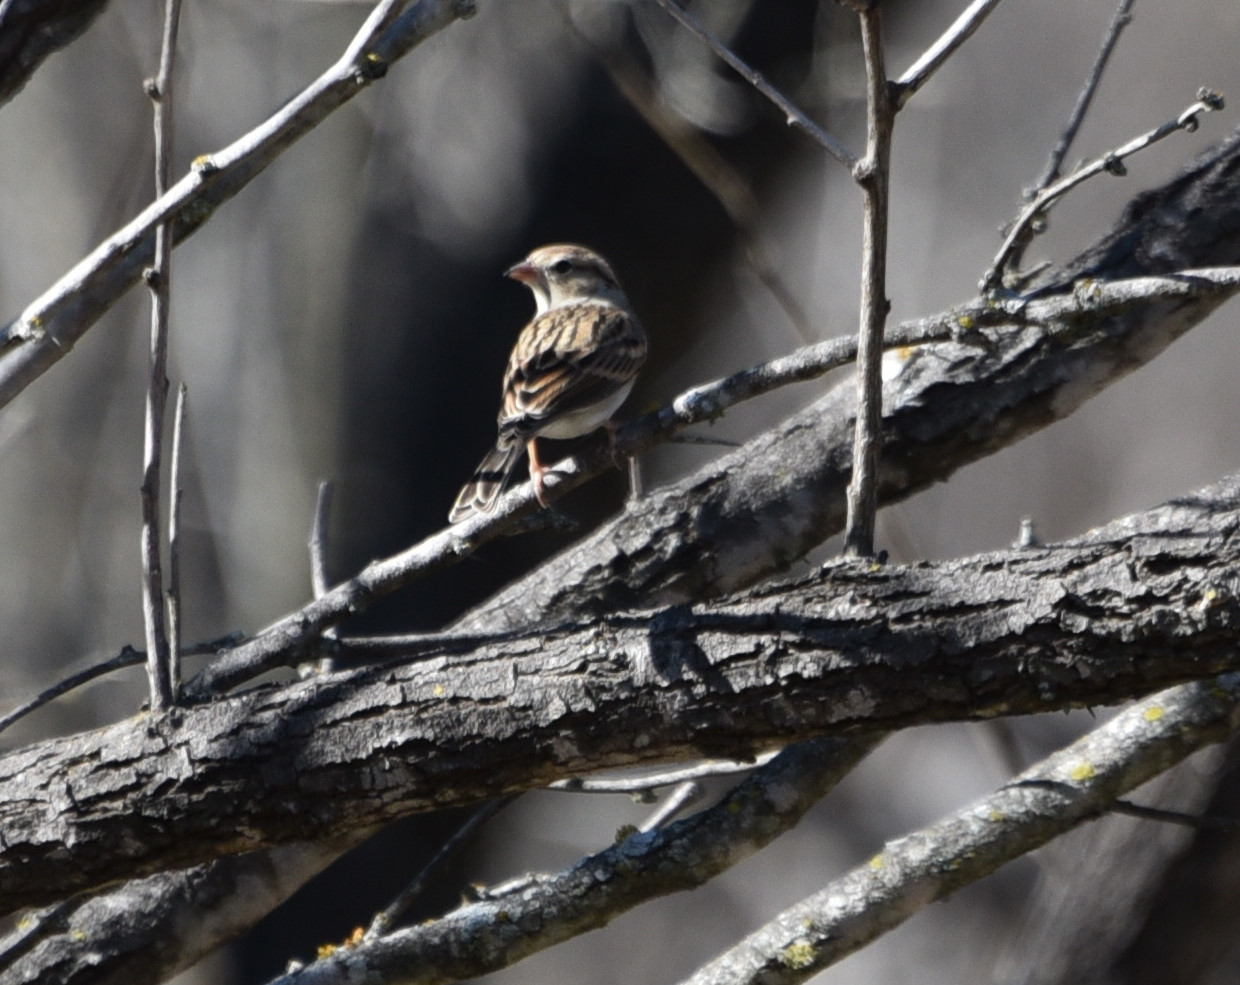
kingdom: Animalia
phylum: Chordata
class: Aves
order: Passeriformes
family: Passerellidae
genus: Spizella
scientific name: Spizella passerina
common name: Chipping sparrow
